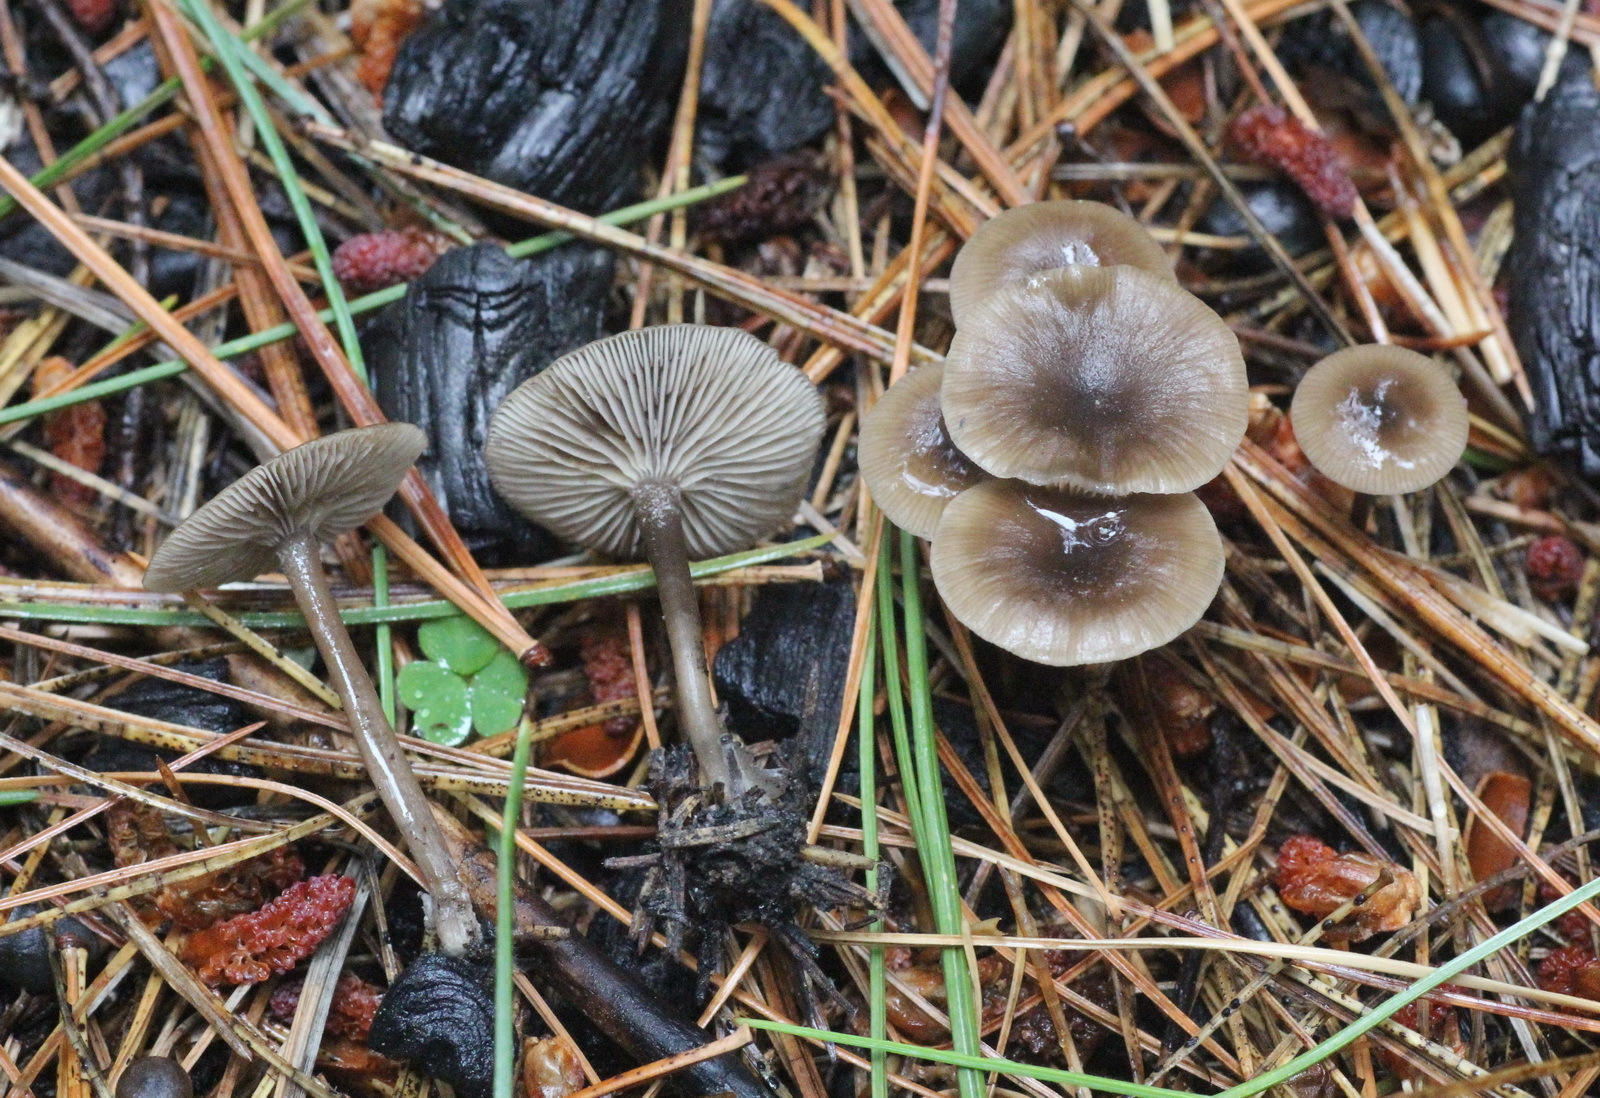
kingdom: Fungi
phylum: Basidiomycota
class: Agaricomycetes
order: Agaricales
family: Tricholomataceae
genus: Myxomphalia
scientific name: Myxomphalia maura
